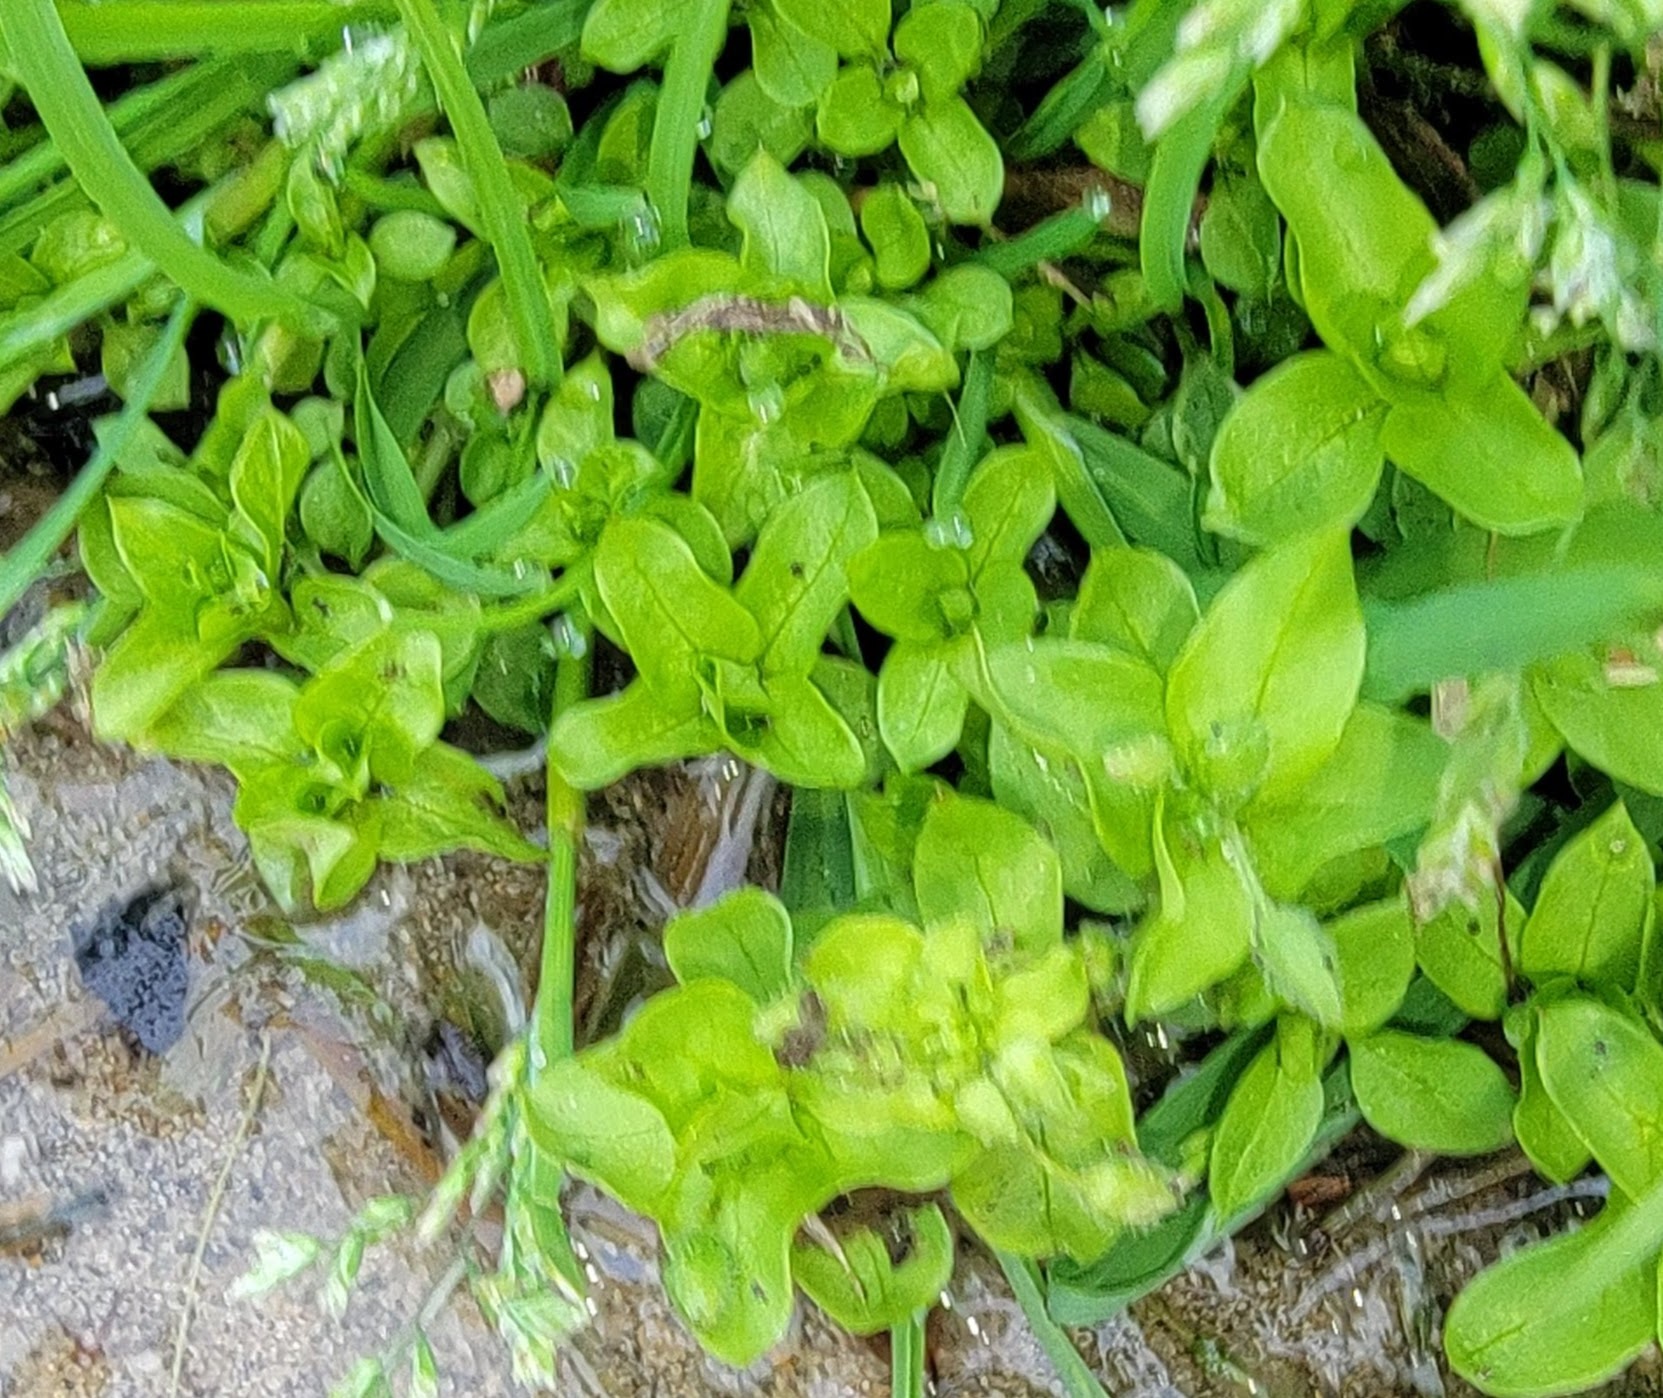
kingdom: Plantae
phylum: Tracheophyta
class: Magnoliopsida
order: Caryophyllales
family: Caryophyllaceae
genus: Stellaria
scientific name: Stellaria media
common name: Common chickweed
